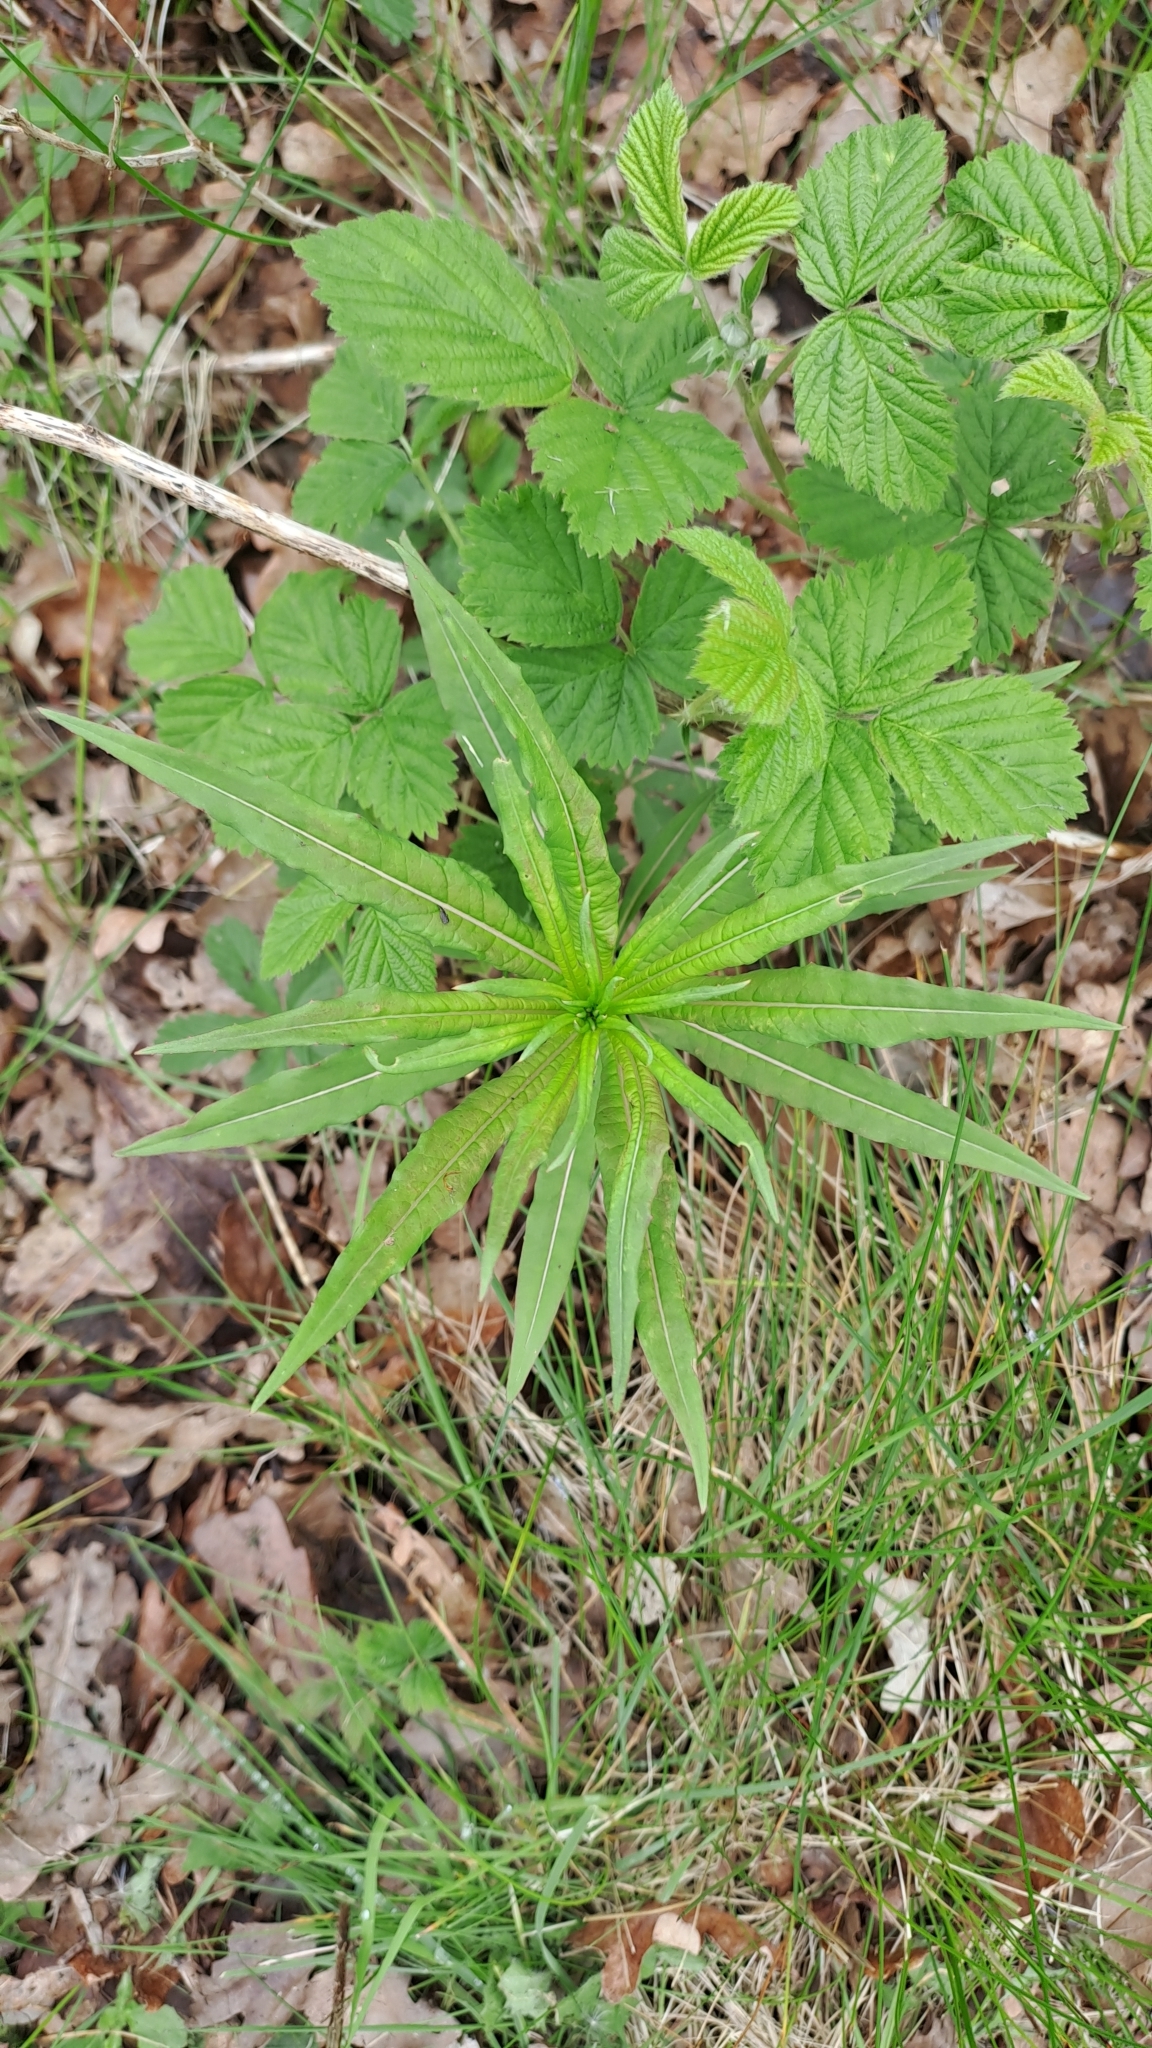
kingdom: Plantae
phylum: Tracheophyta
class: Magnoliopsida
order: Myrtales
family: Onagraceae
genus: Chamaenerion
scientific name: Chamaenerion angustifolium
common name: Fireweed
